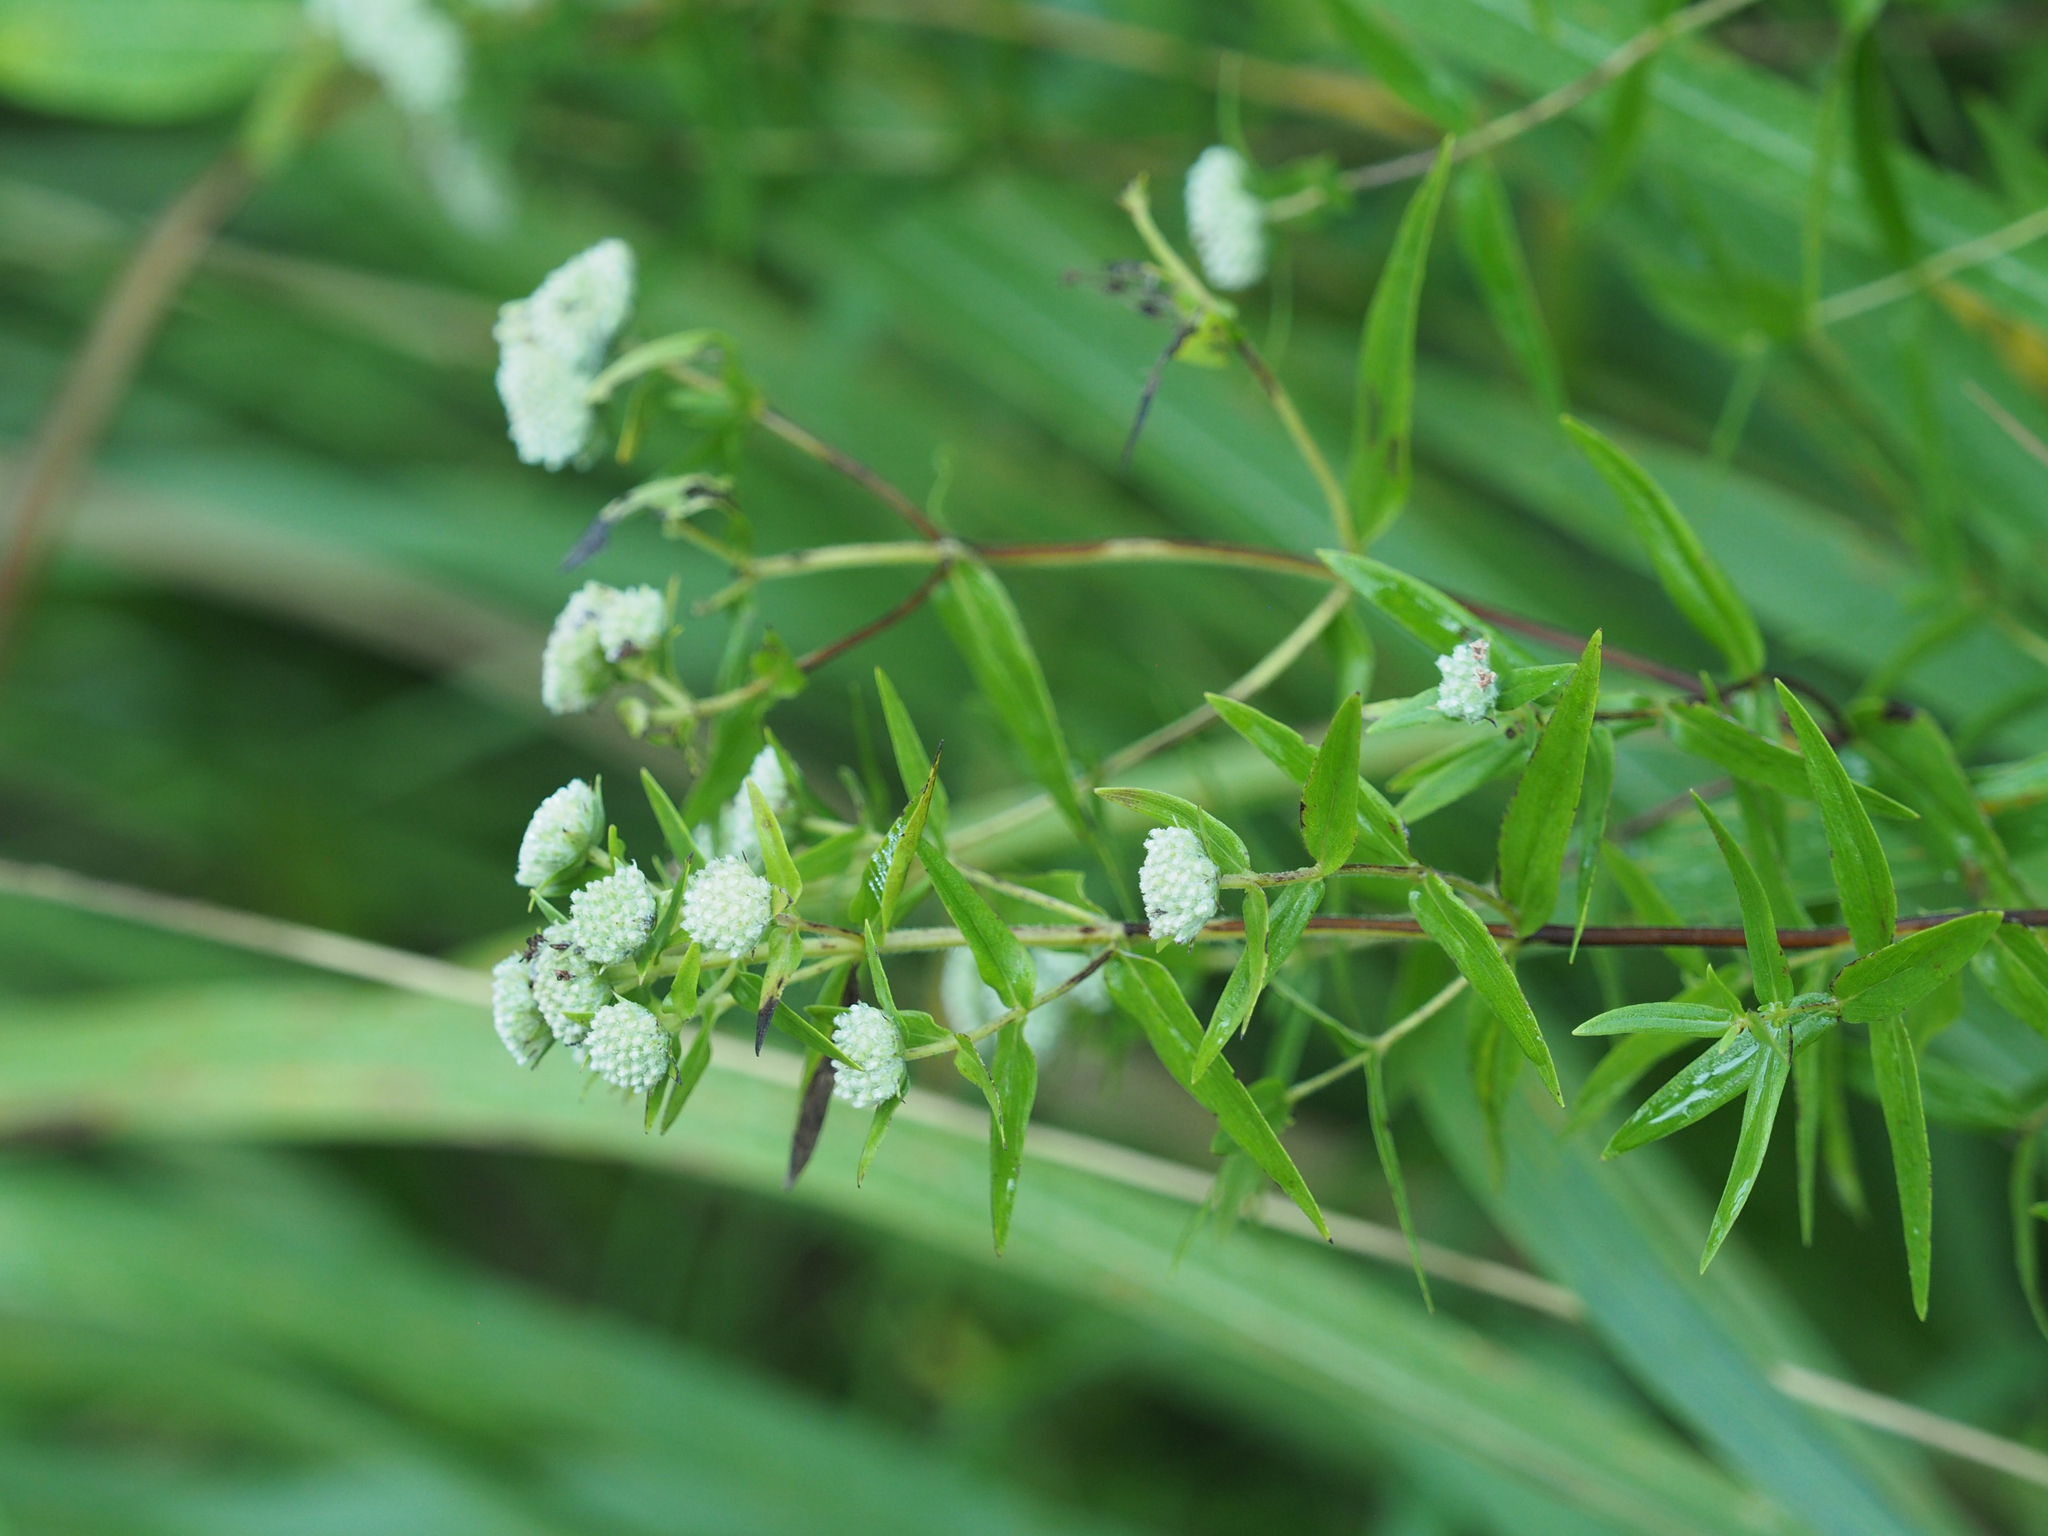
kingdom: Plantae
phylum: Tracheophyta
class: Magnoliopsida
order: Lamiales
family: Lamiaceae
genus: Pycnanthemum
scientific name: Pycnanthemum tenuifolium
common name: Narrow-leaf mountain-mint
